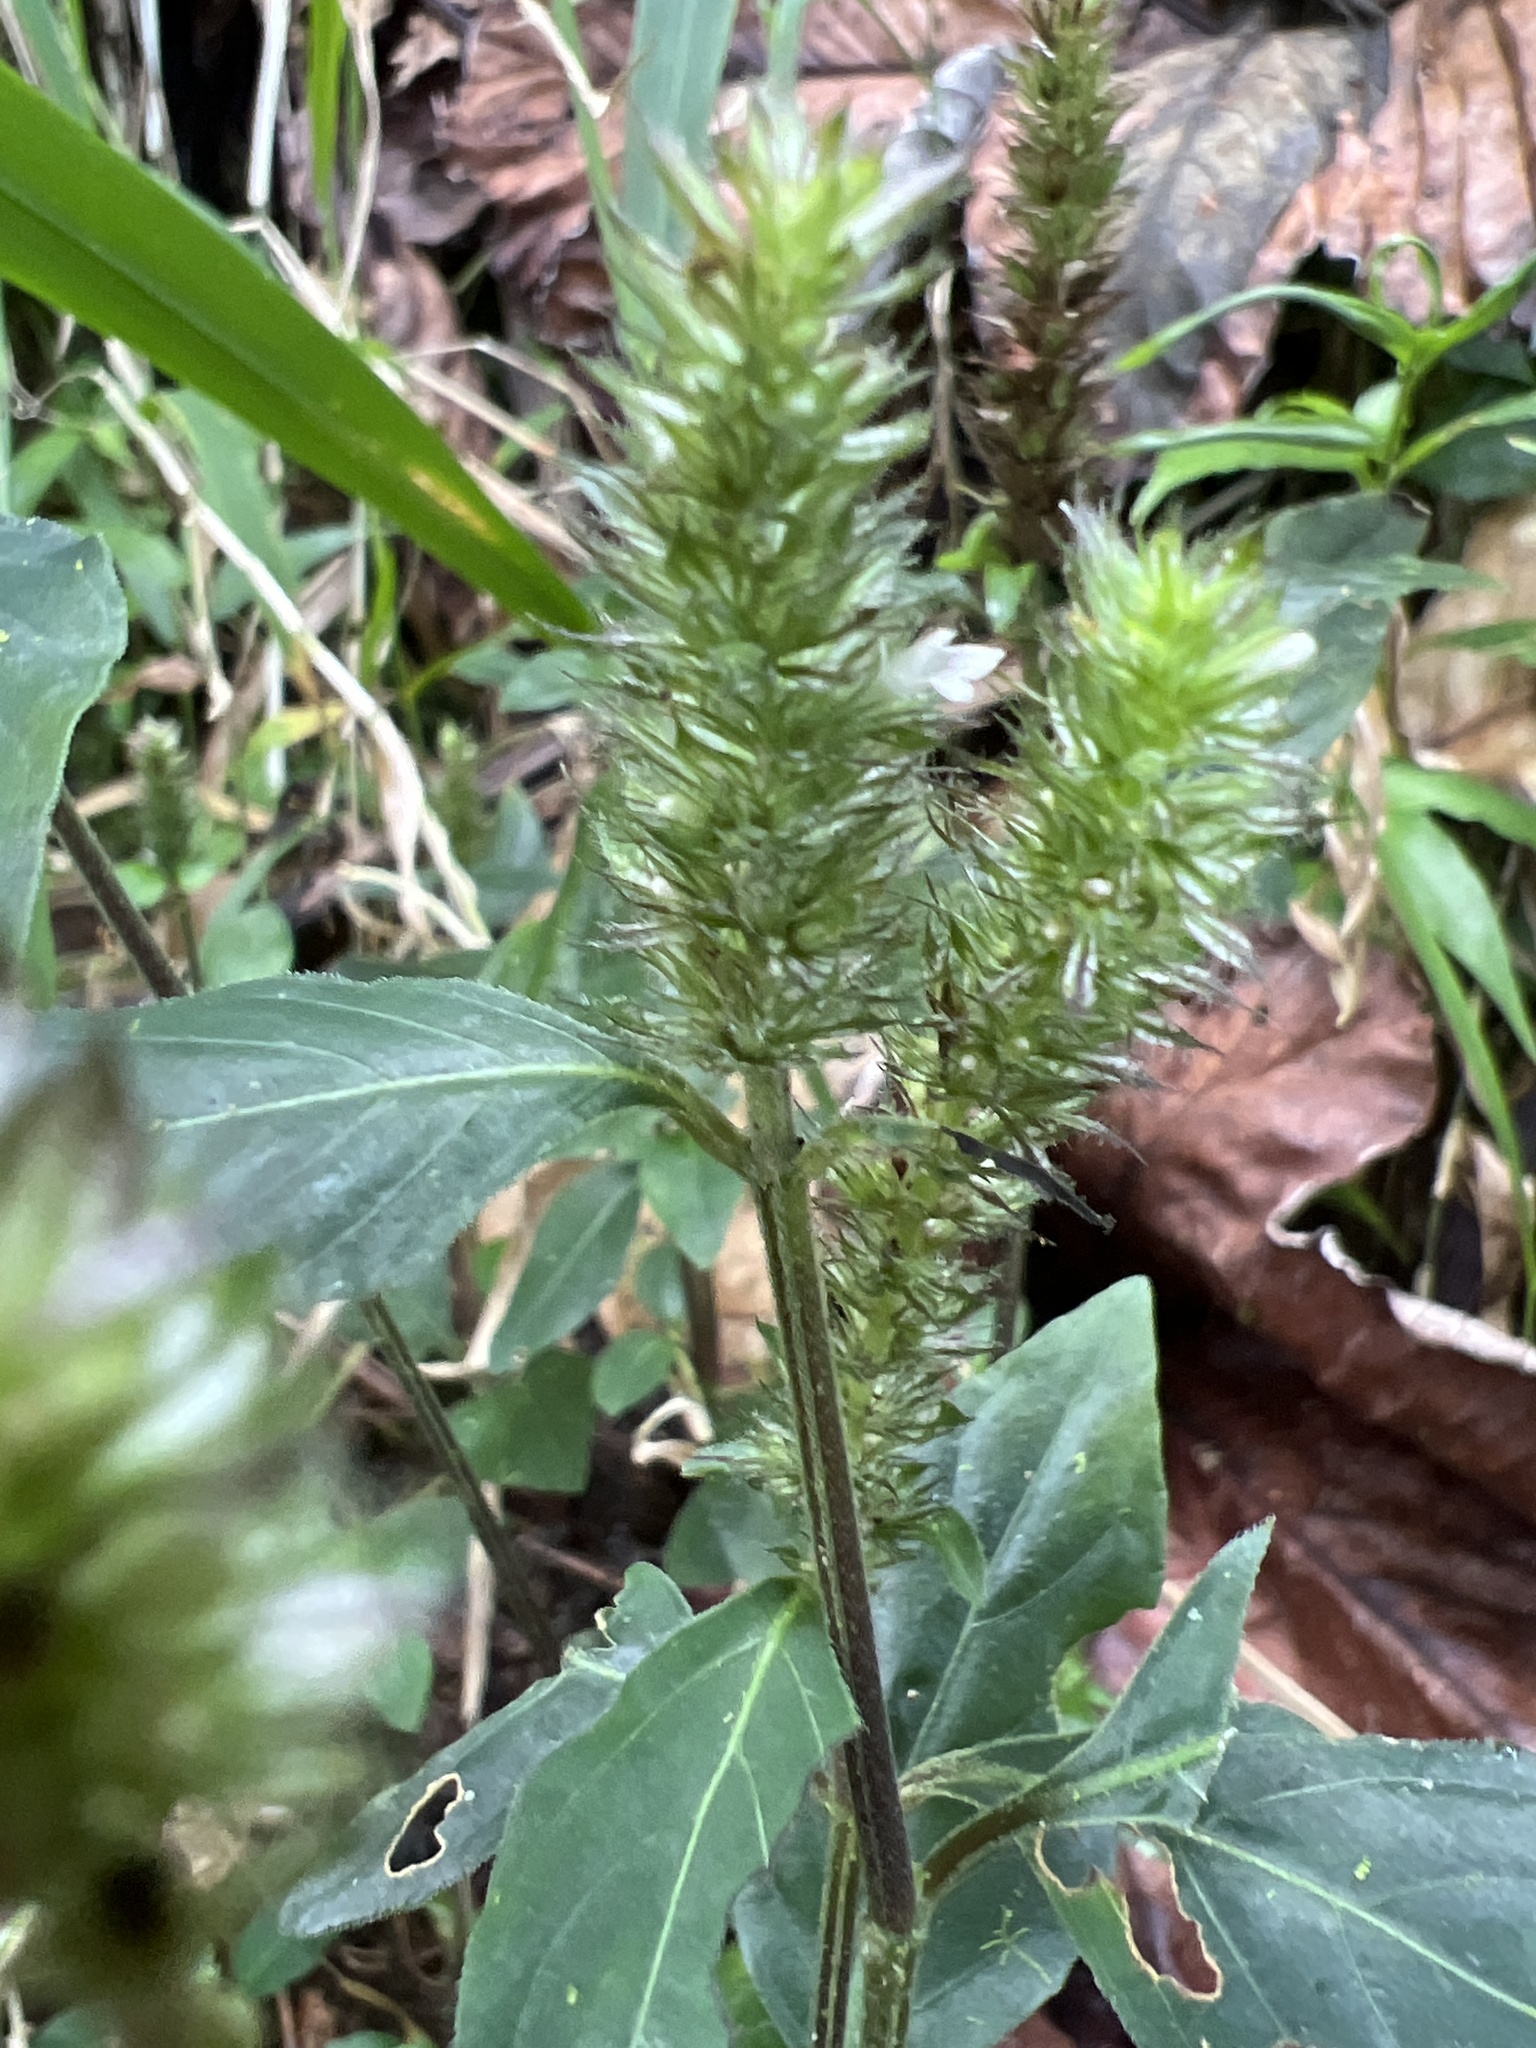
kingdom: Plantae
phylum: Tracheophyta
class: Magnoliopsida
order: Lamiales
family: Acanthaceae
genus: Lepidagathis
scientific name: Lepidagathis alopecuroidea
